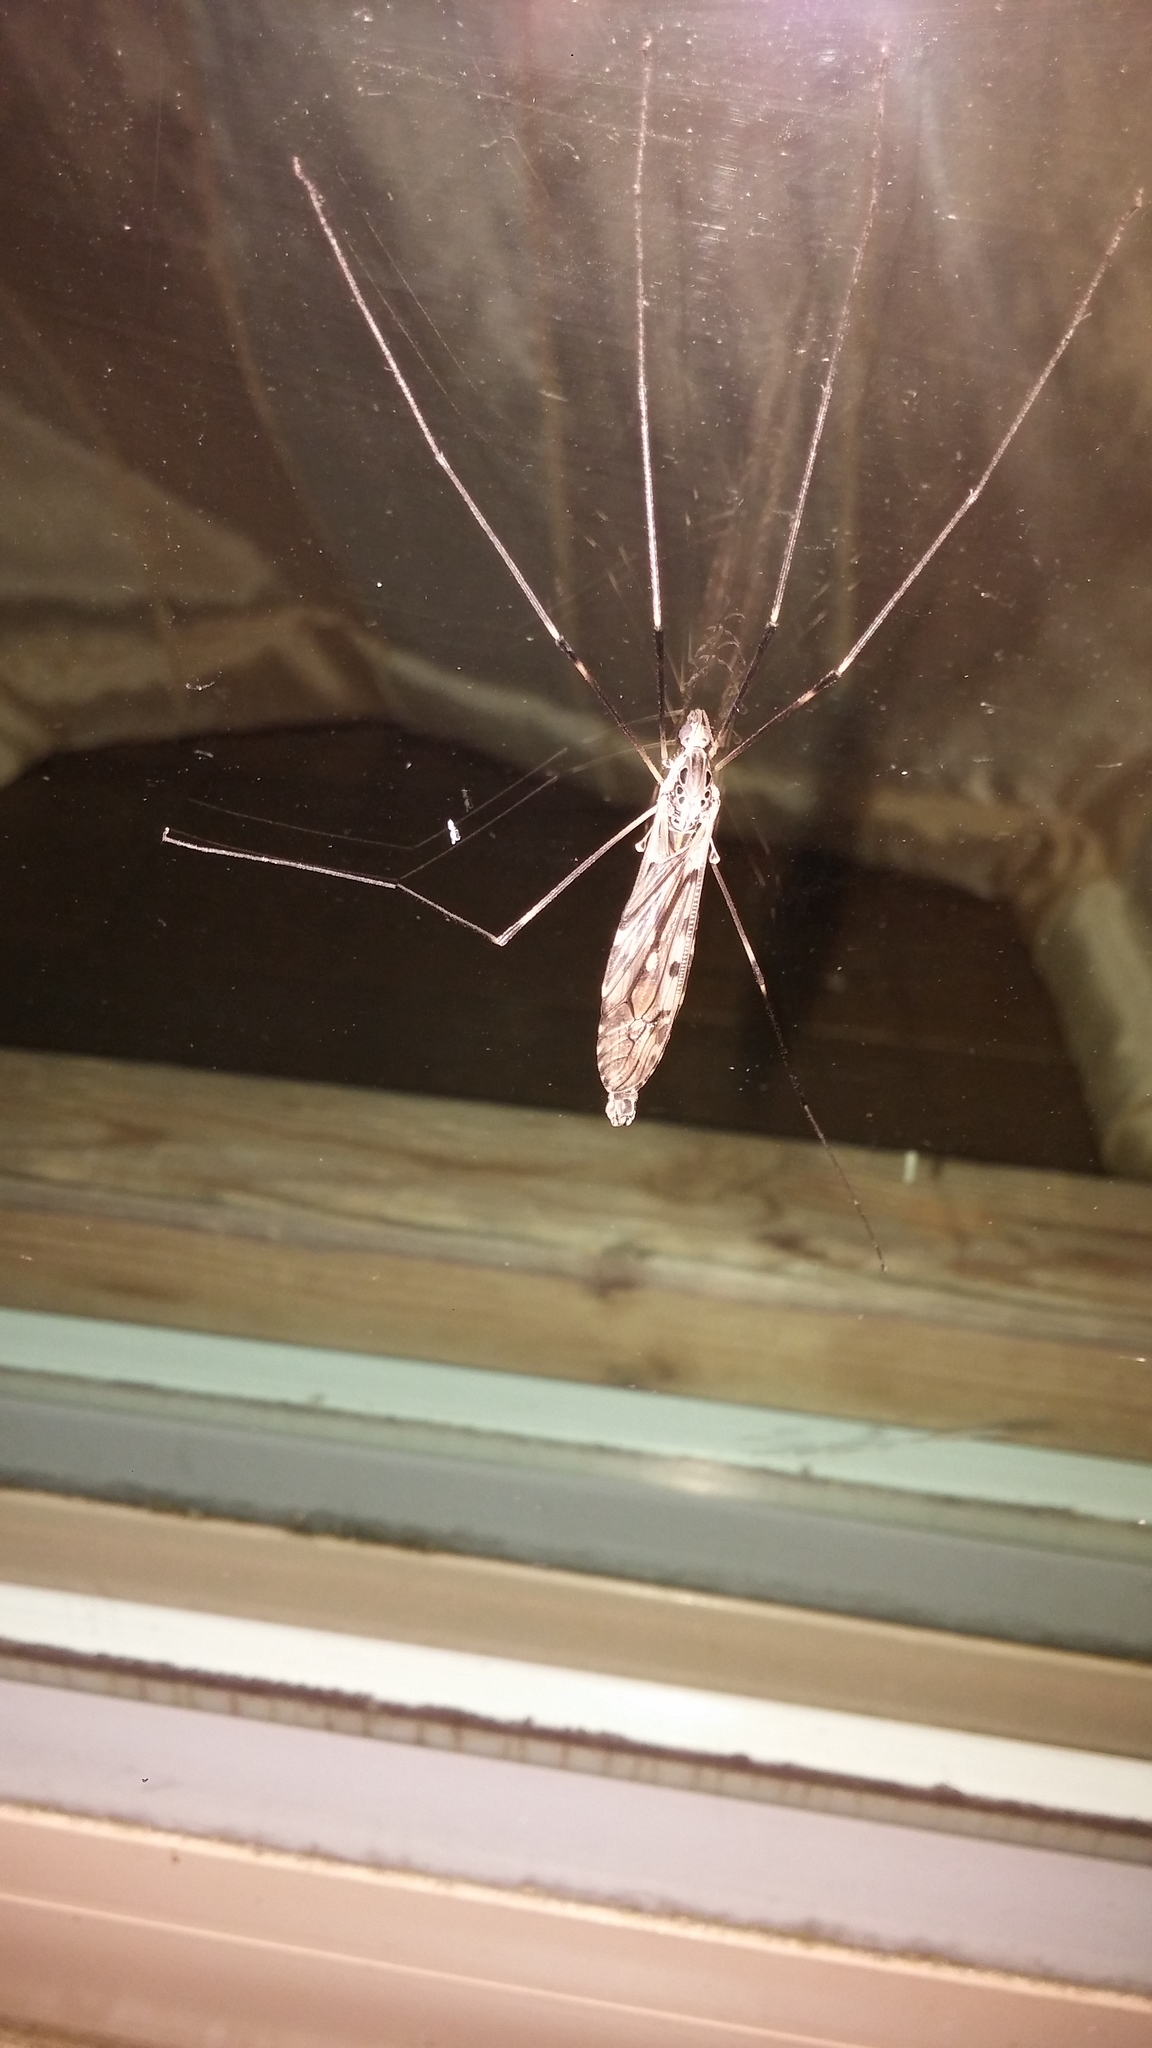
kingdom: Animalia
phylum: Arthropoda
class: Insecta
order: Diptera
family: Tipulidae
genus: Tipula
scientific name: Tipula abdominalis
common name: Giant crane fly
